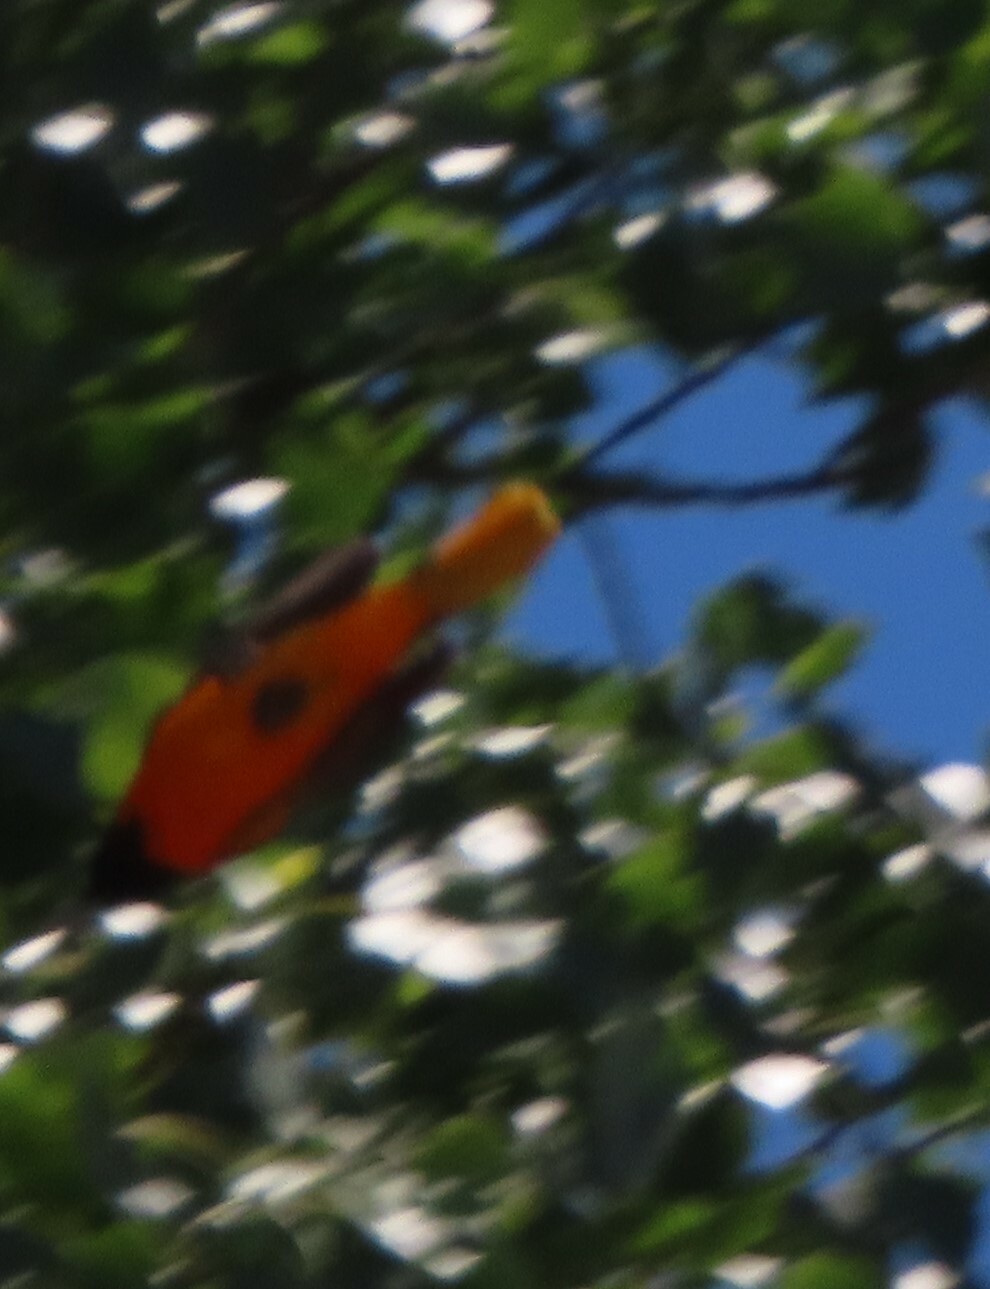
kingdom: Animalia
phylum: Chordata
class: Aves
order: Passeriformes
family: Icteridae
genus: Icterus
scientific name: Icterus galbula
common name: Baltimore oriole
